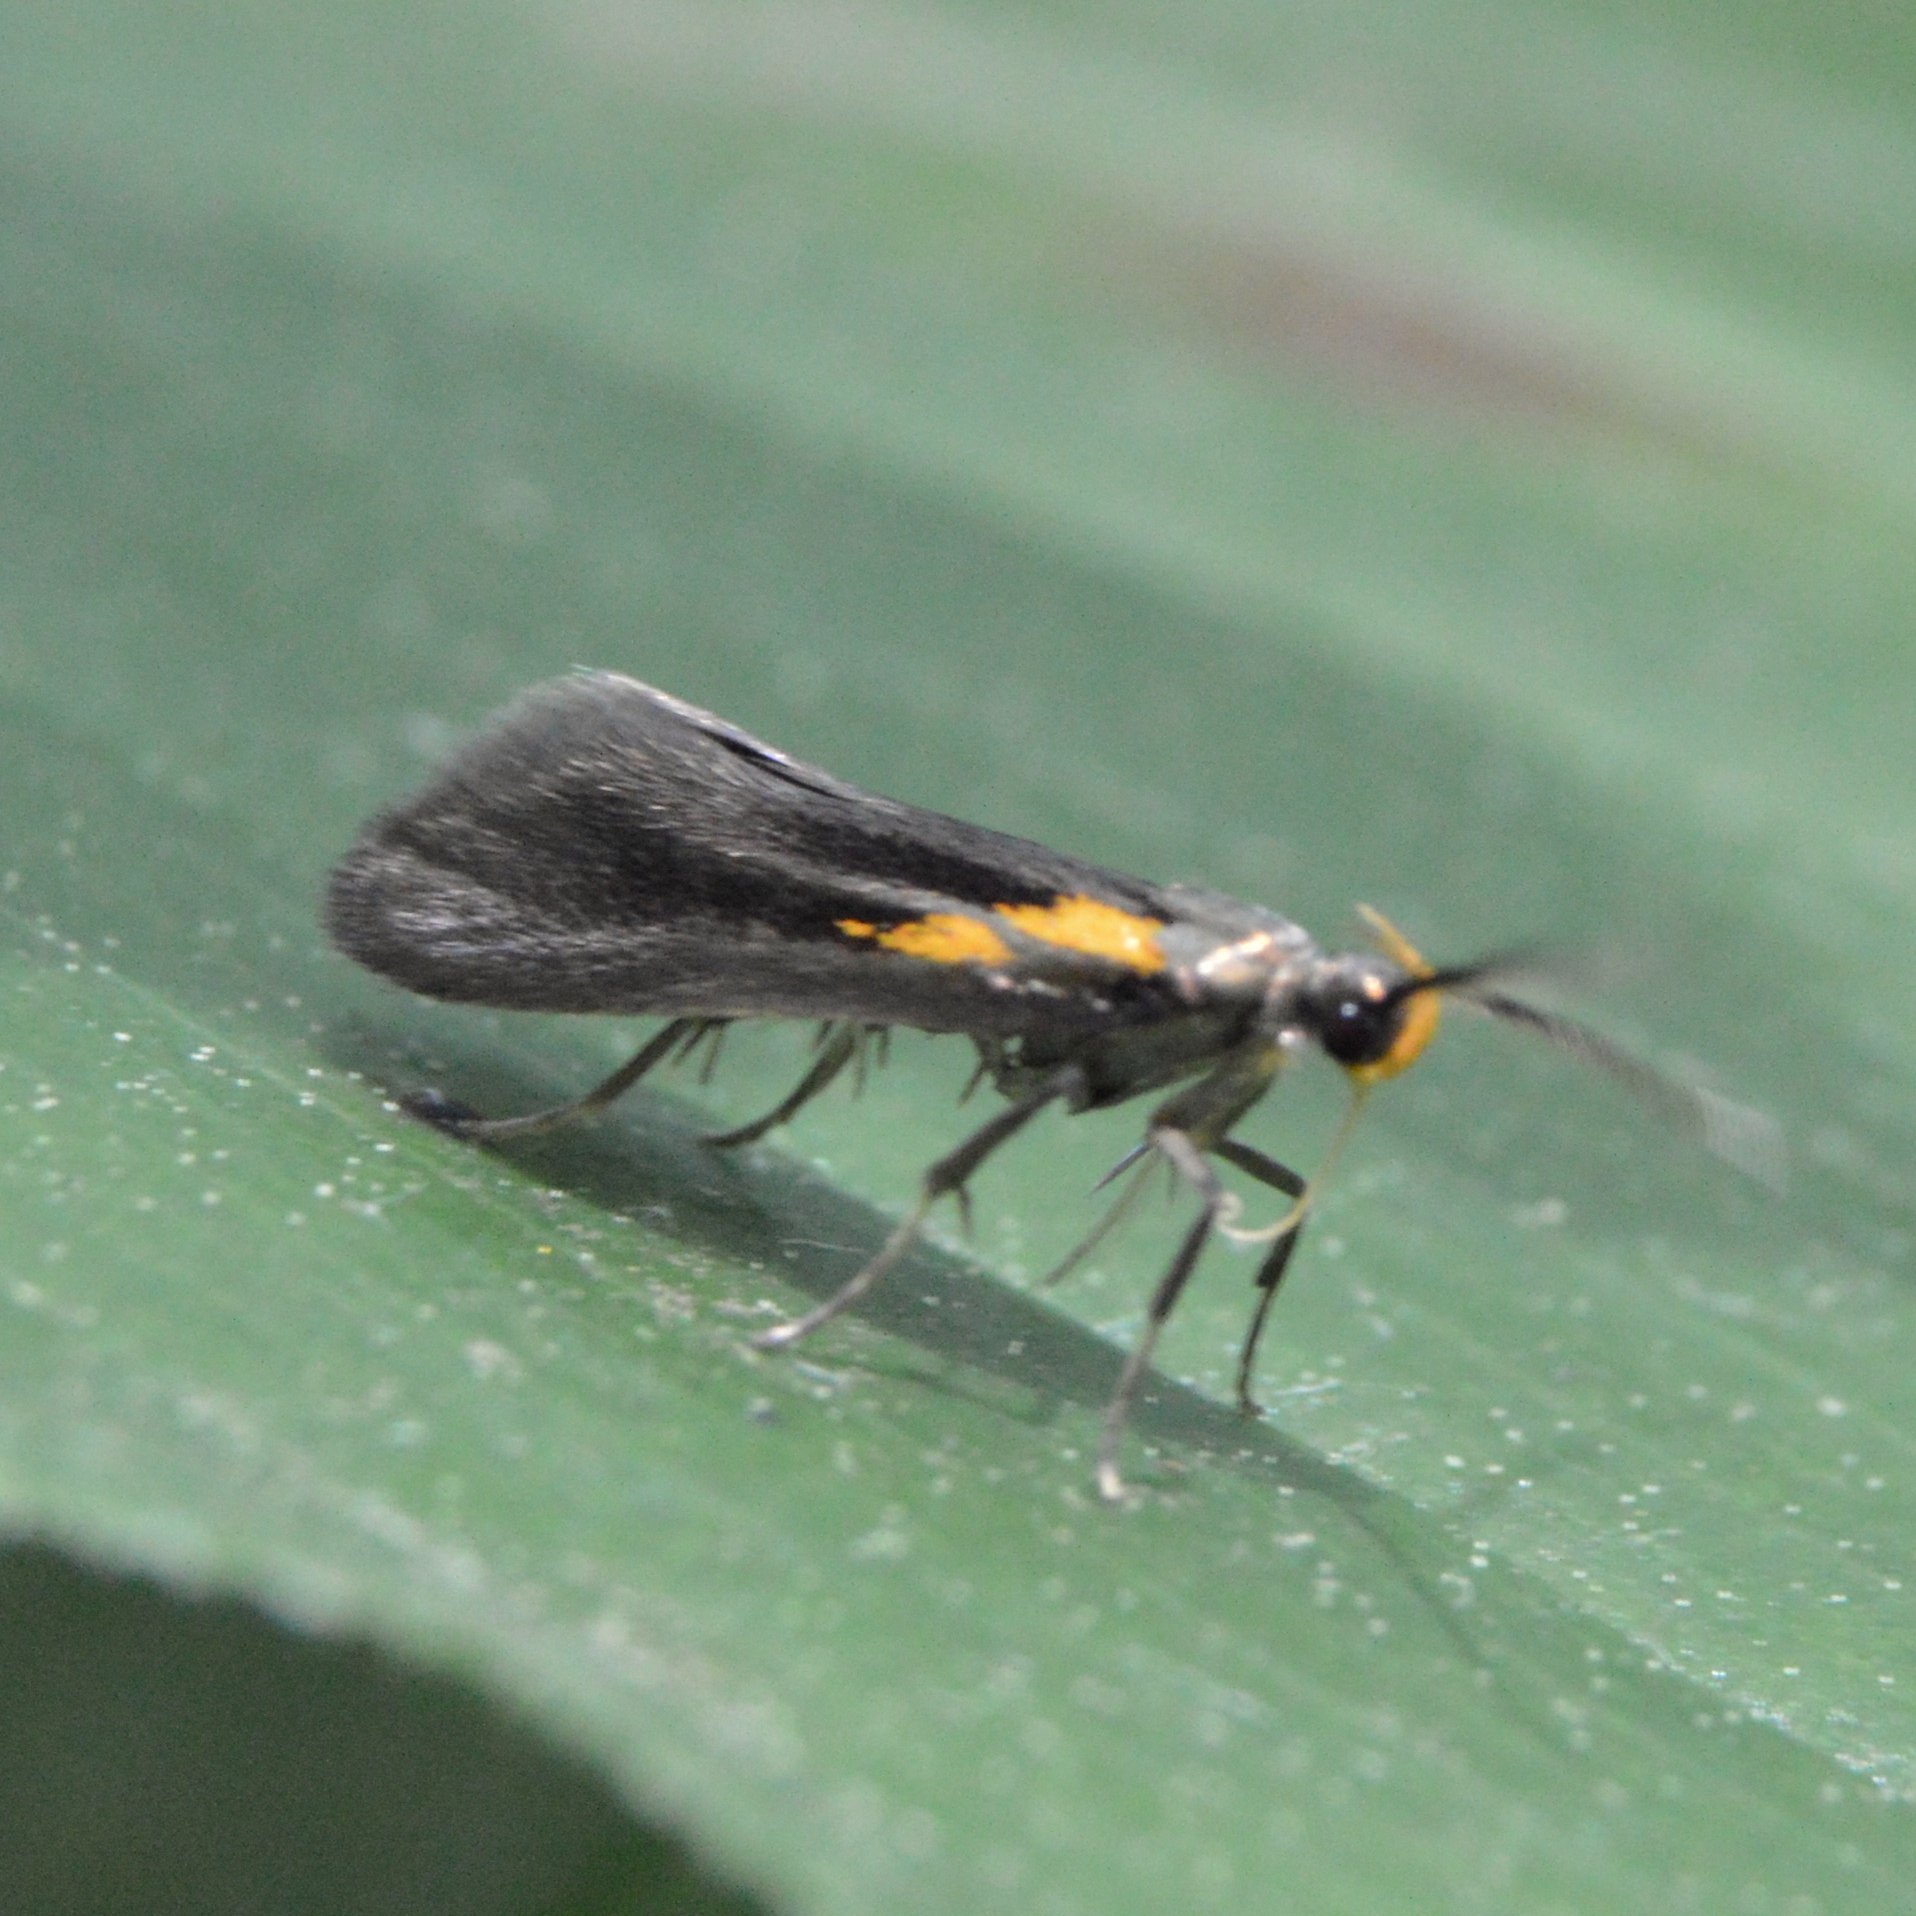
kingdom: Animalia
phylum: Arthropoda
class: Insecta
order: Lepidoptera
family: Oecophoridae
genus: Mathildana
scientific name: Mathildana newmanella
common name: Newman's mathildana moth
